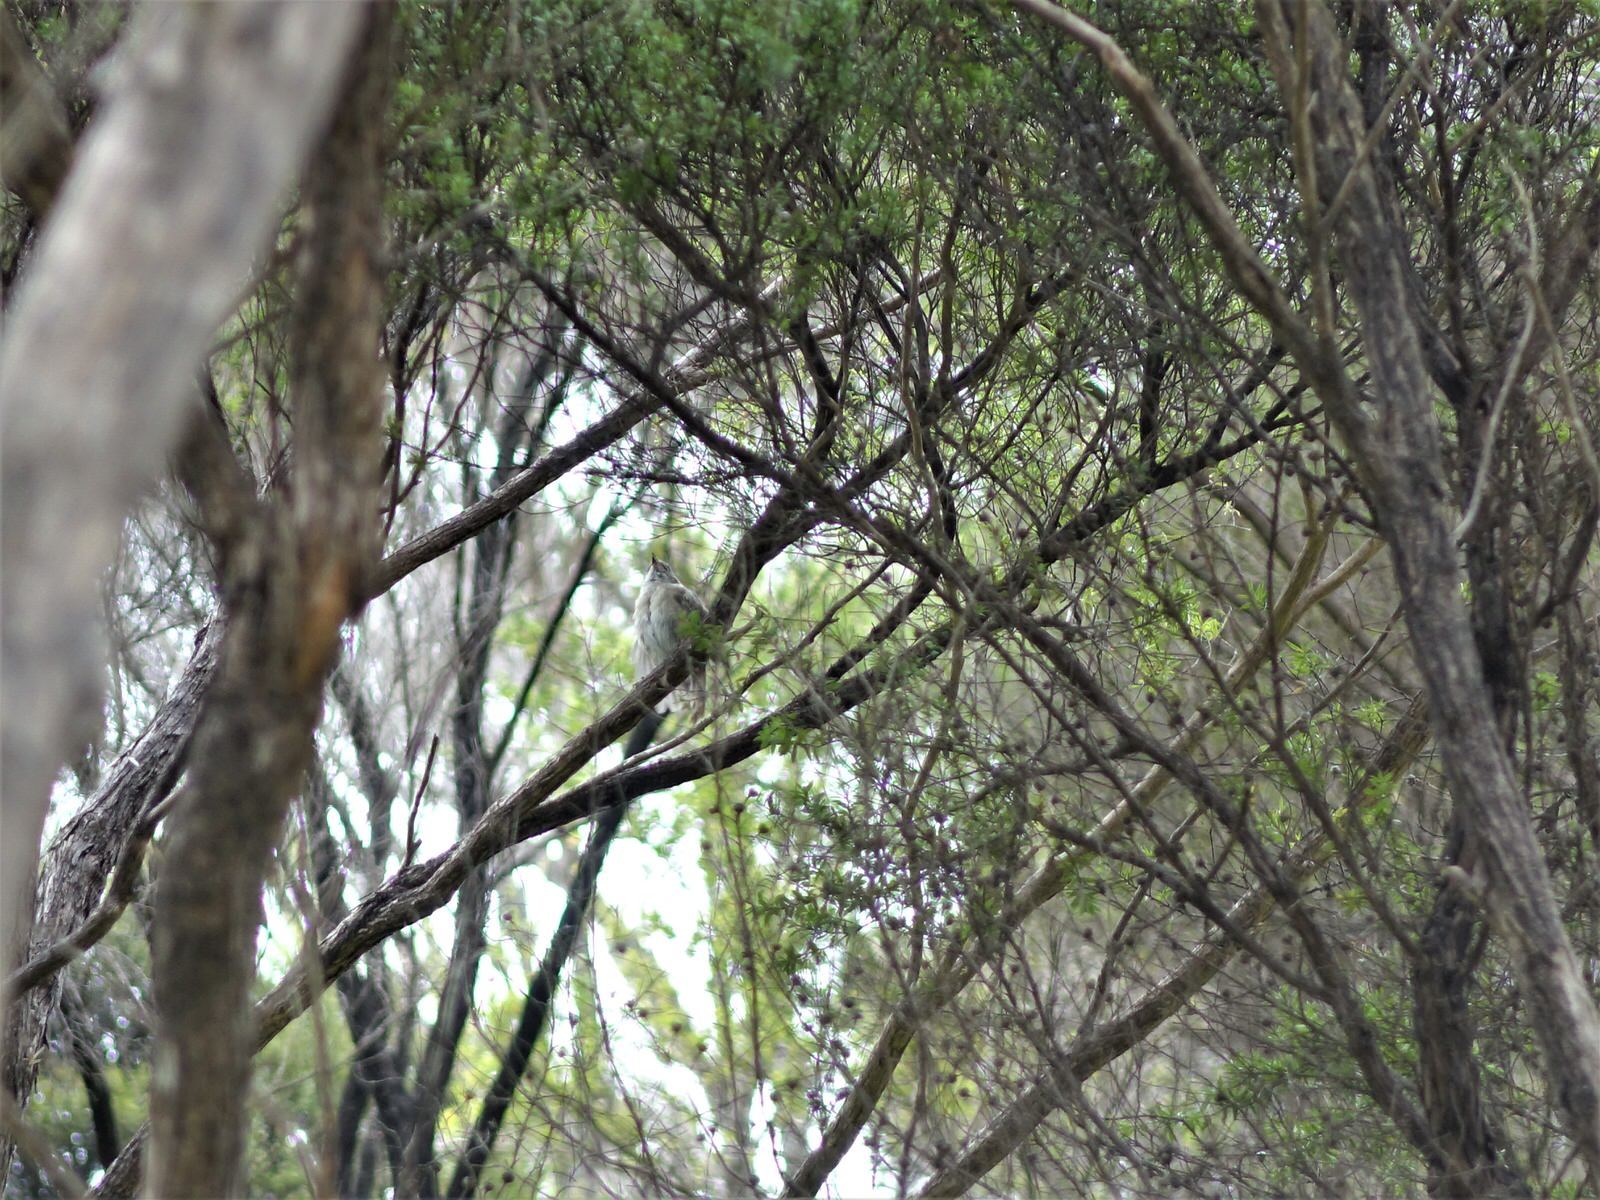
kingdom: Animalia
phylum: Chordata
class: Aves
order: Passeriformes
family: Acanthizidae
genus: Mohoua
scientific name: Mohoua albicilla
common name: Whitehead
